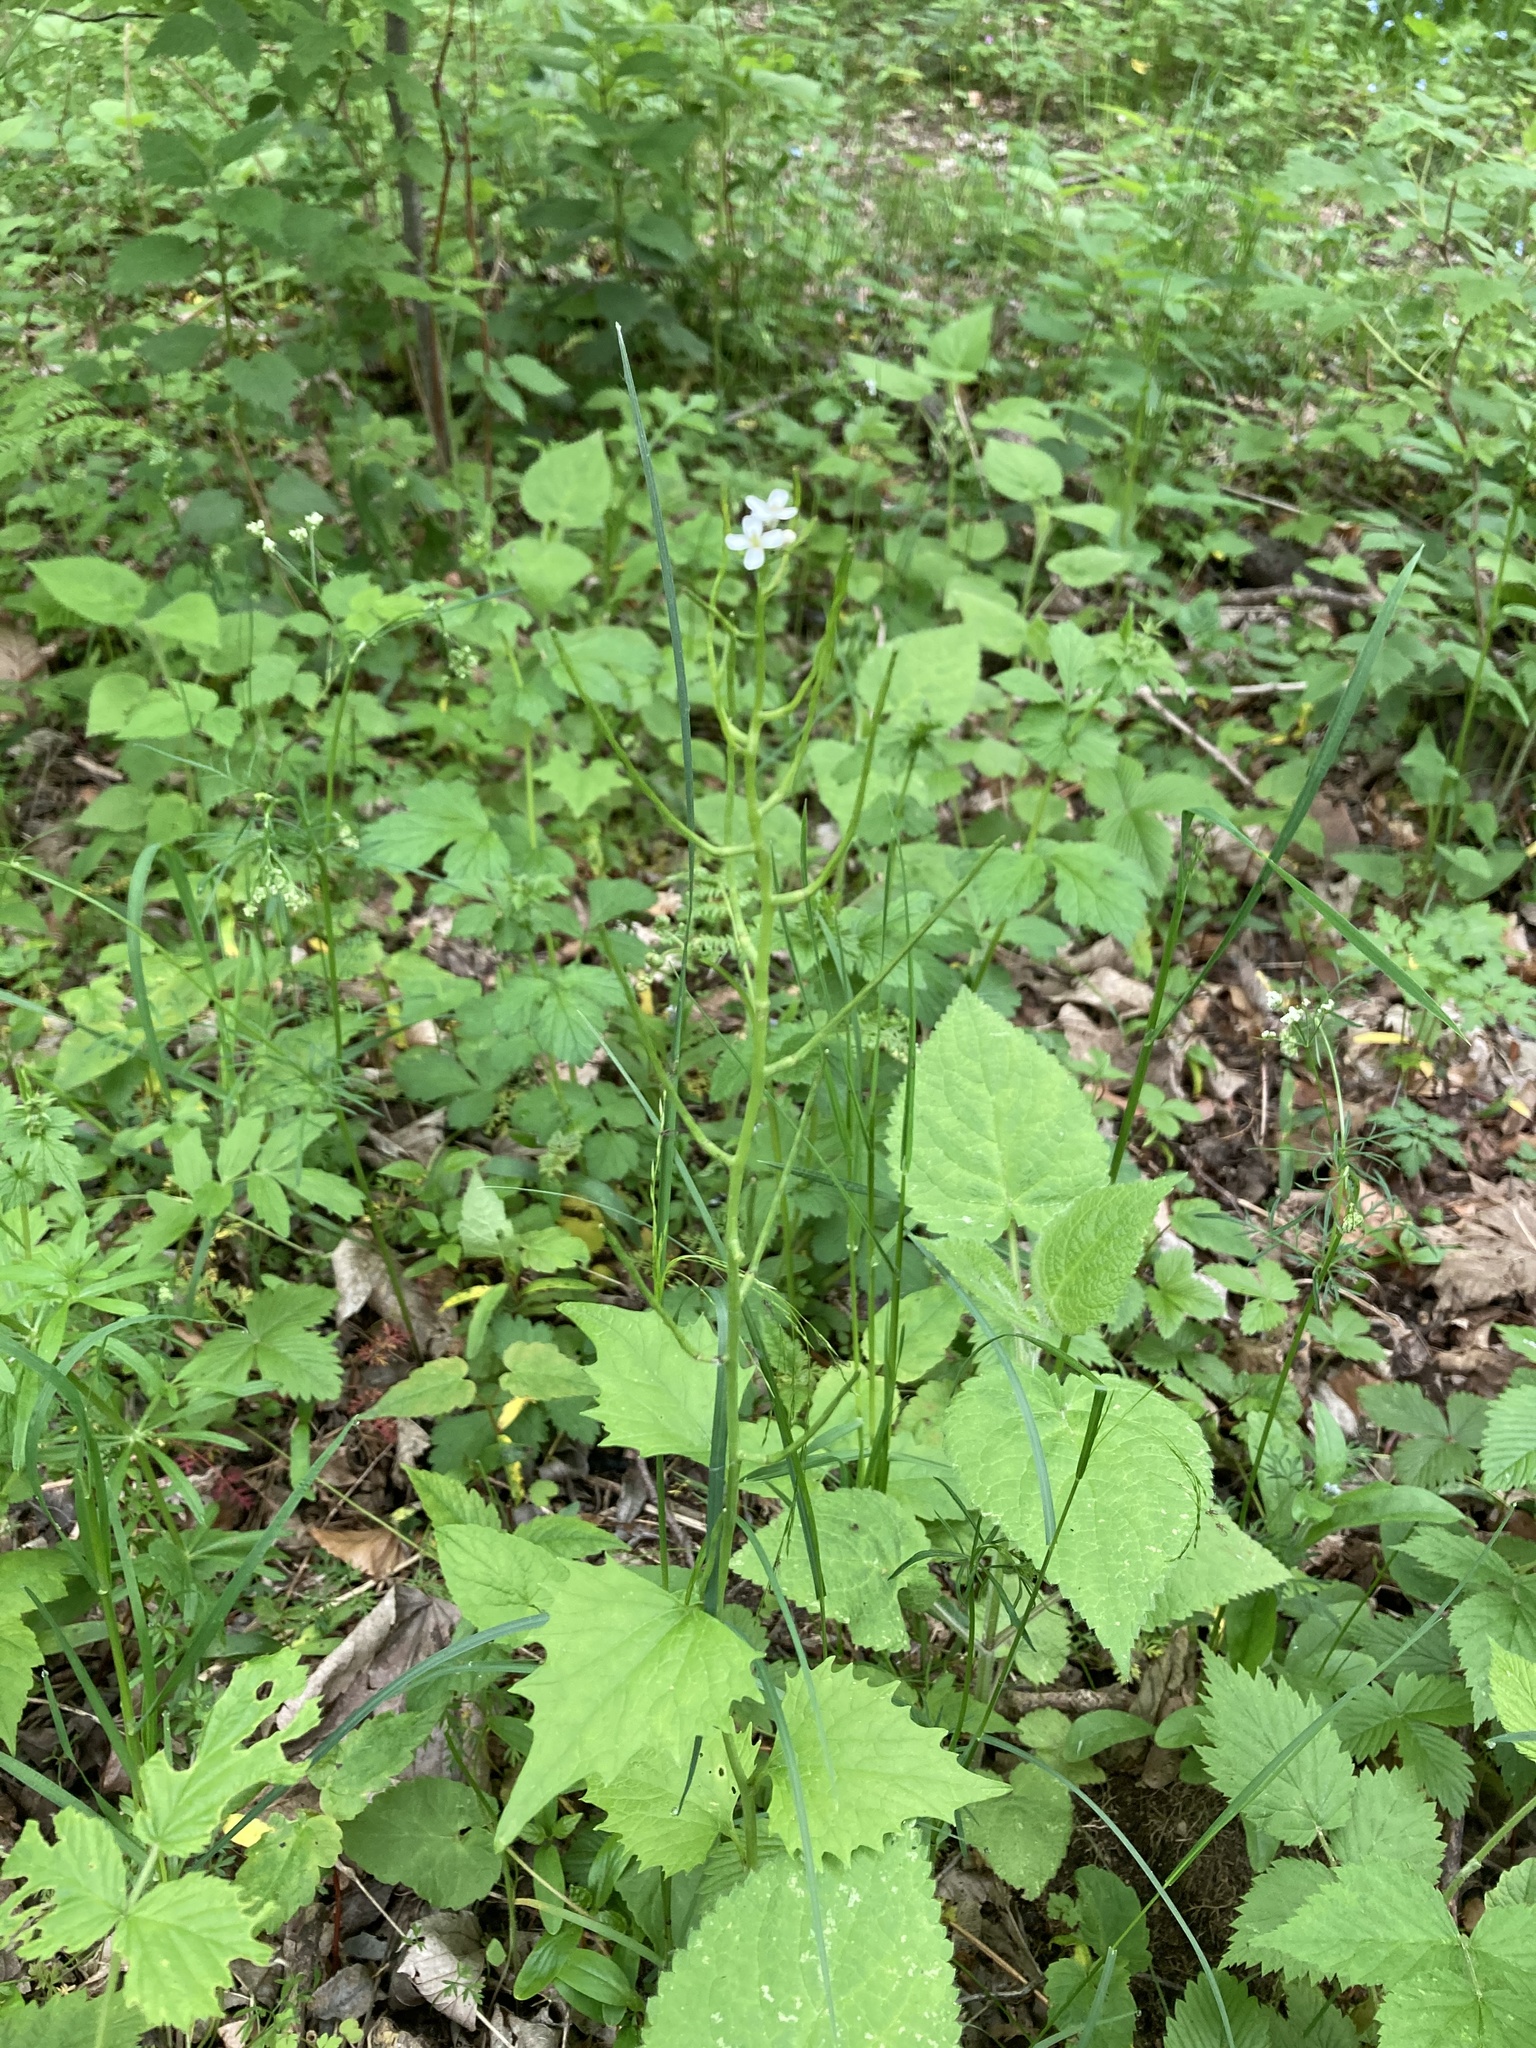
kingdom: Plantae
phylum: Tracheophyta
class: Magnoliopsida
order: Brassicales
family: Brassicaceae
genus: Alliaria
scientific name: Alliaria petiolata
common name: Garlic mustard
